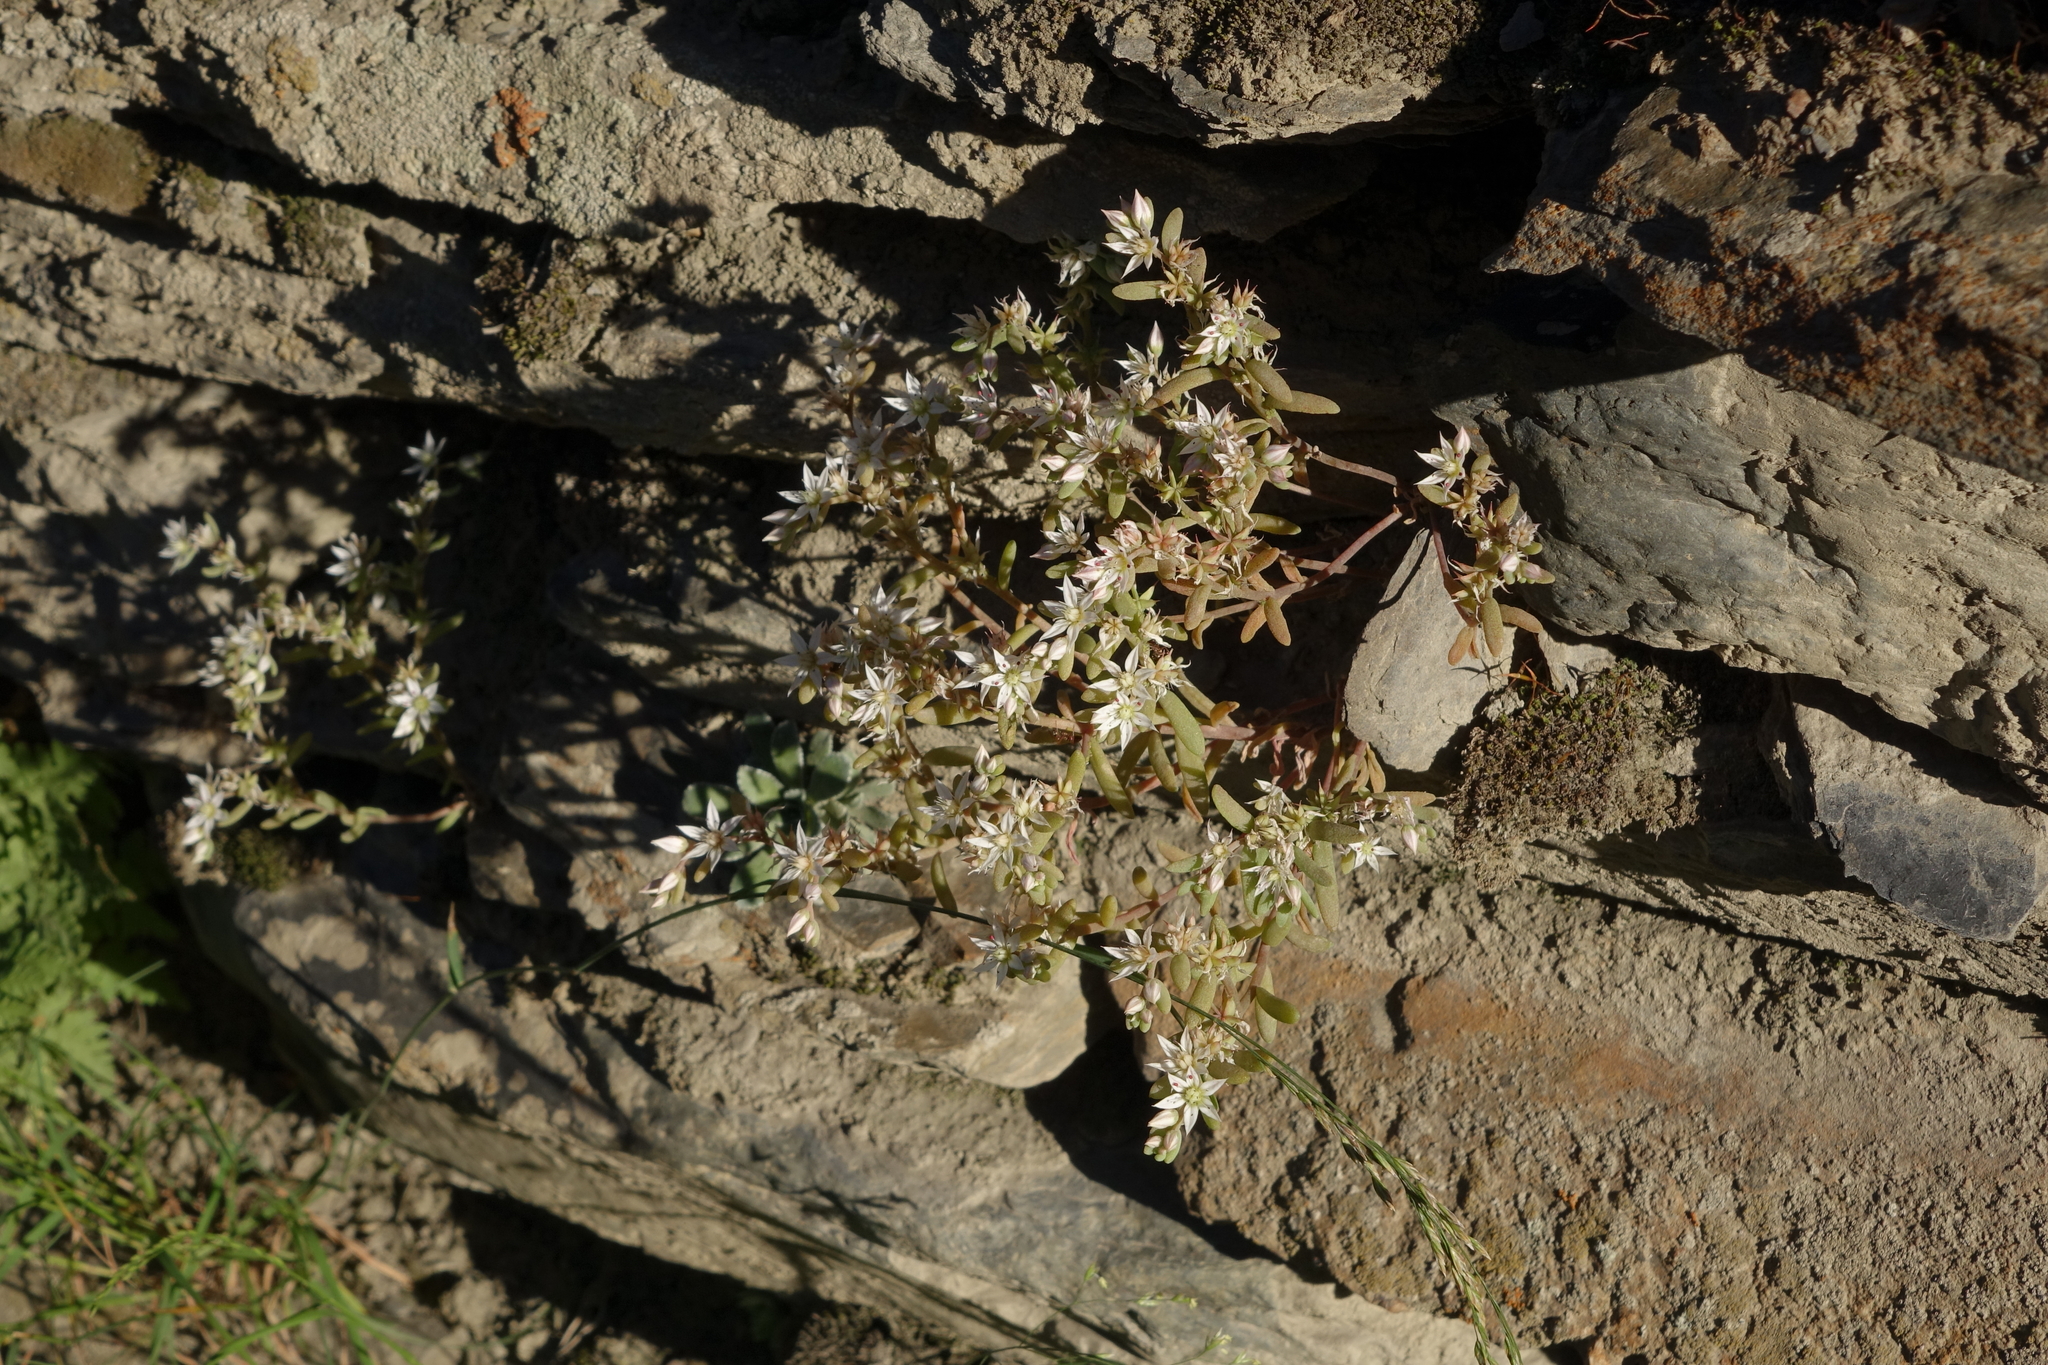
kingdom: Plantae
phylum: Tracheophyta
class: Magnoliopsida
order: Saxifragales
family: Crassulaceae
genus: Sedum
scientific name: Sedum hispanicum
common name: Spanish stonecrop
